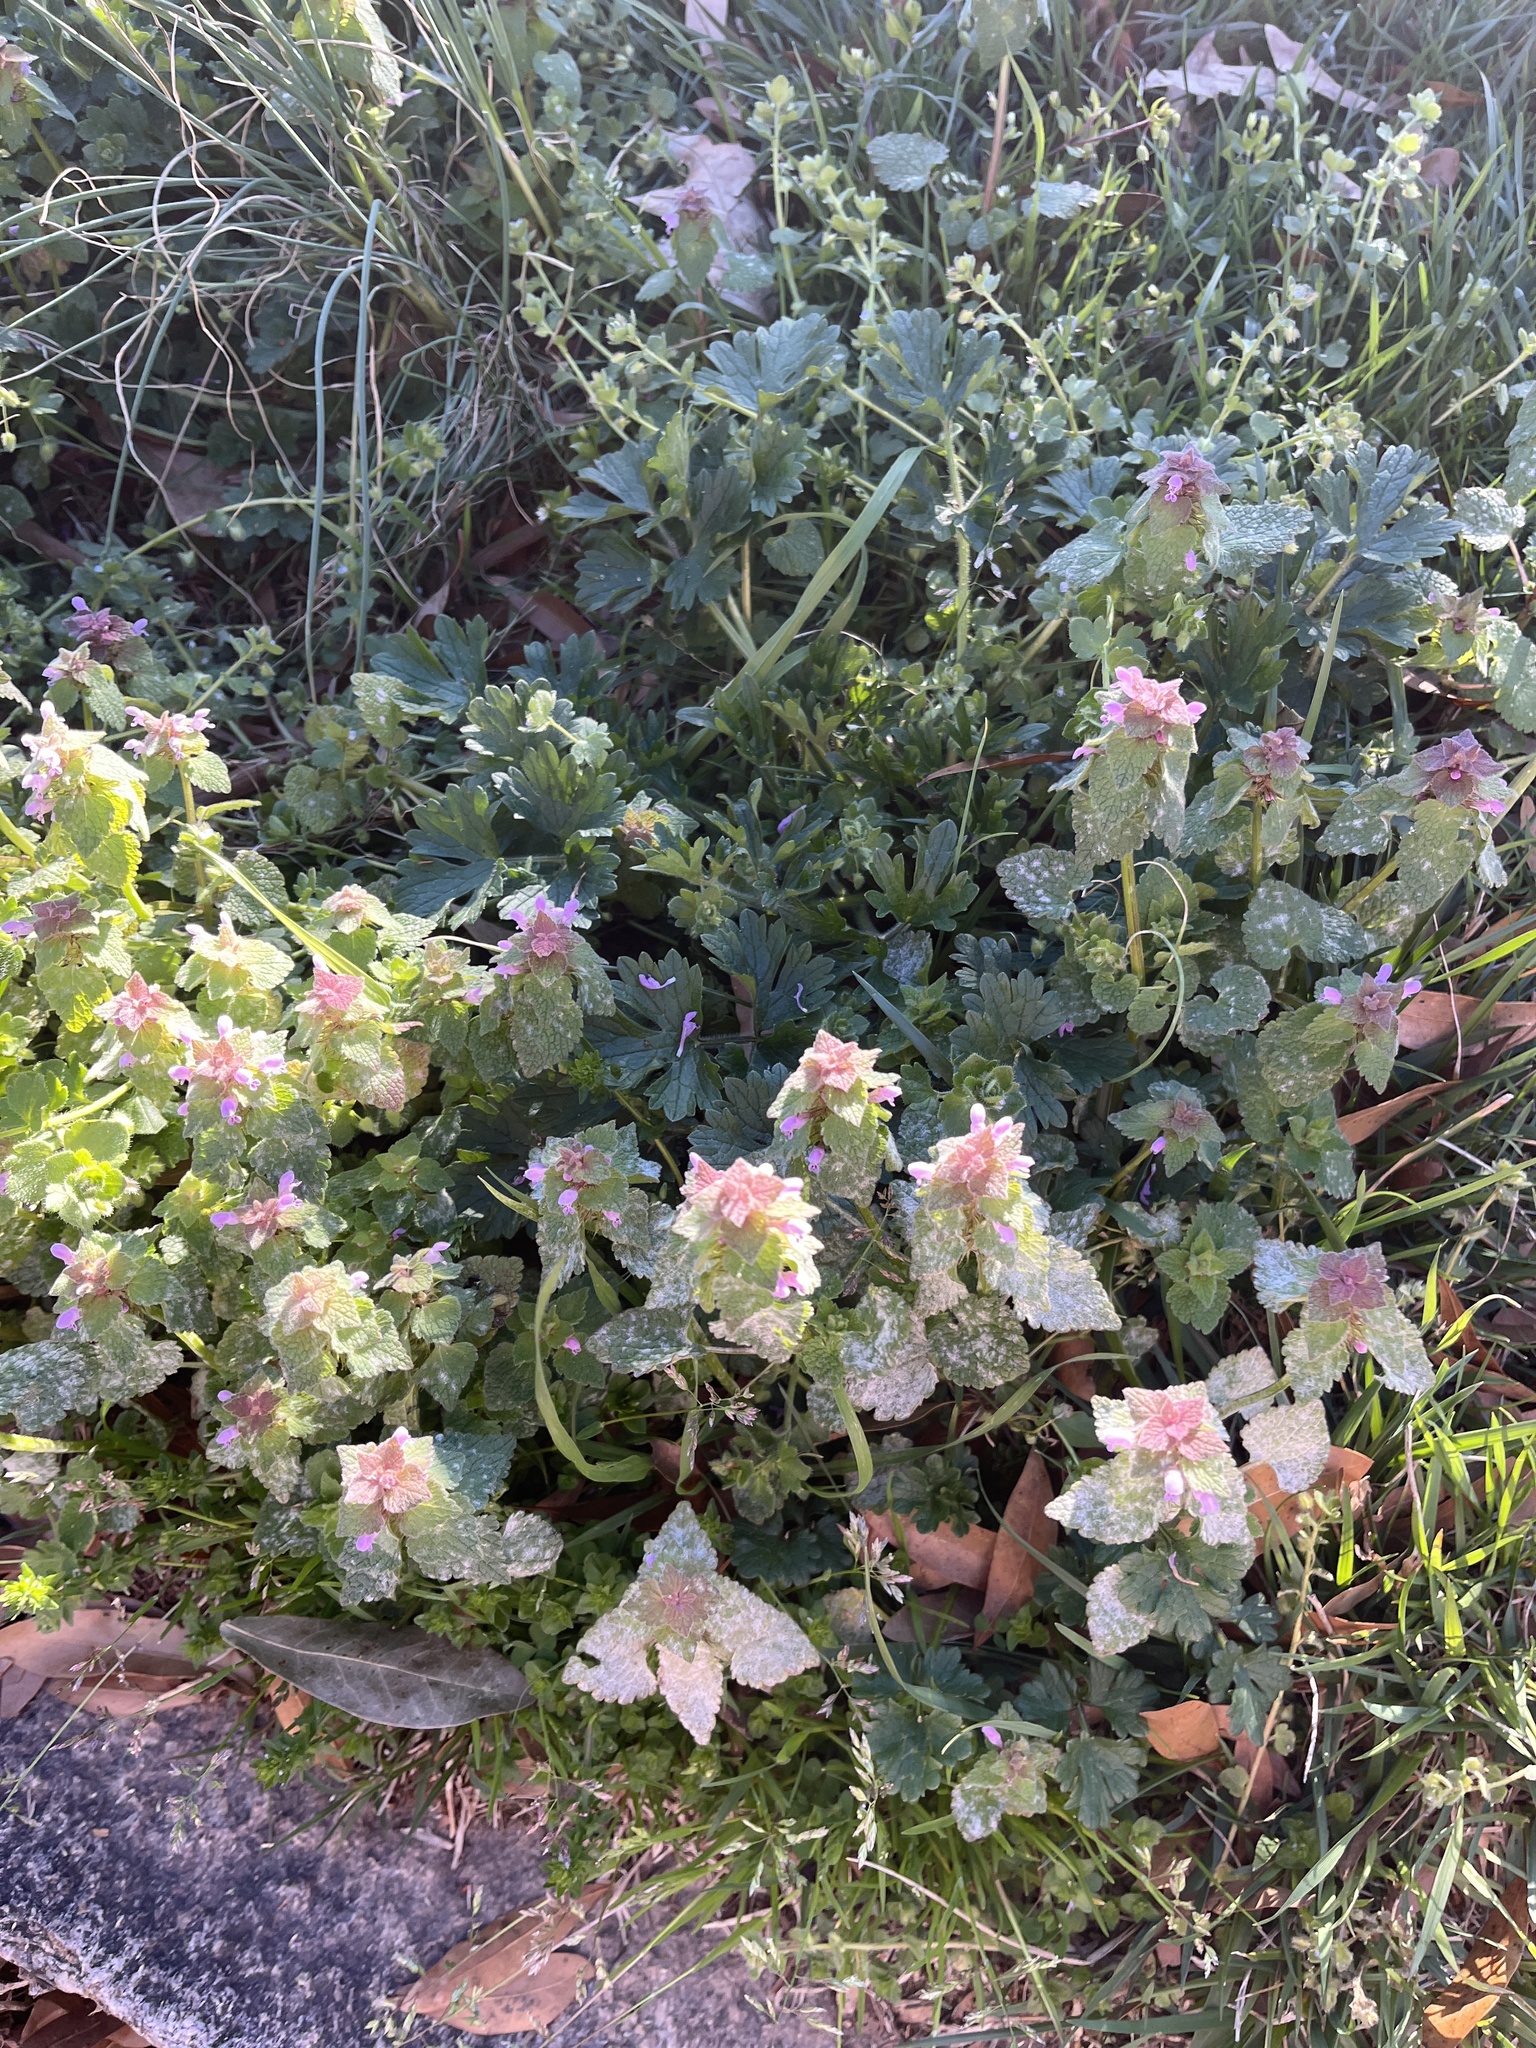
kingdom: Plantae
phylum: Tracheophyta
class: Magnoliopsida
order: Lamiales
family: Lamiaceae
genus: Lamium
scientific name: Lamium purpureum
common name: Red dead-nettle
